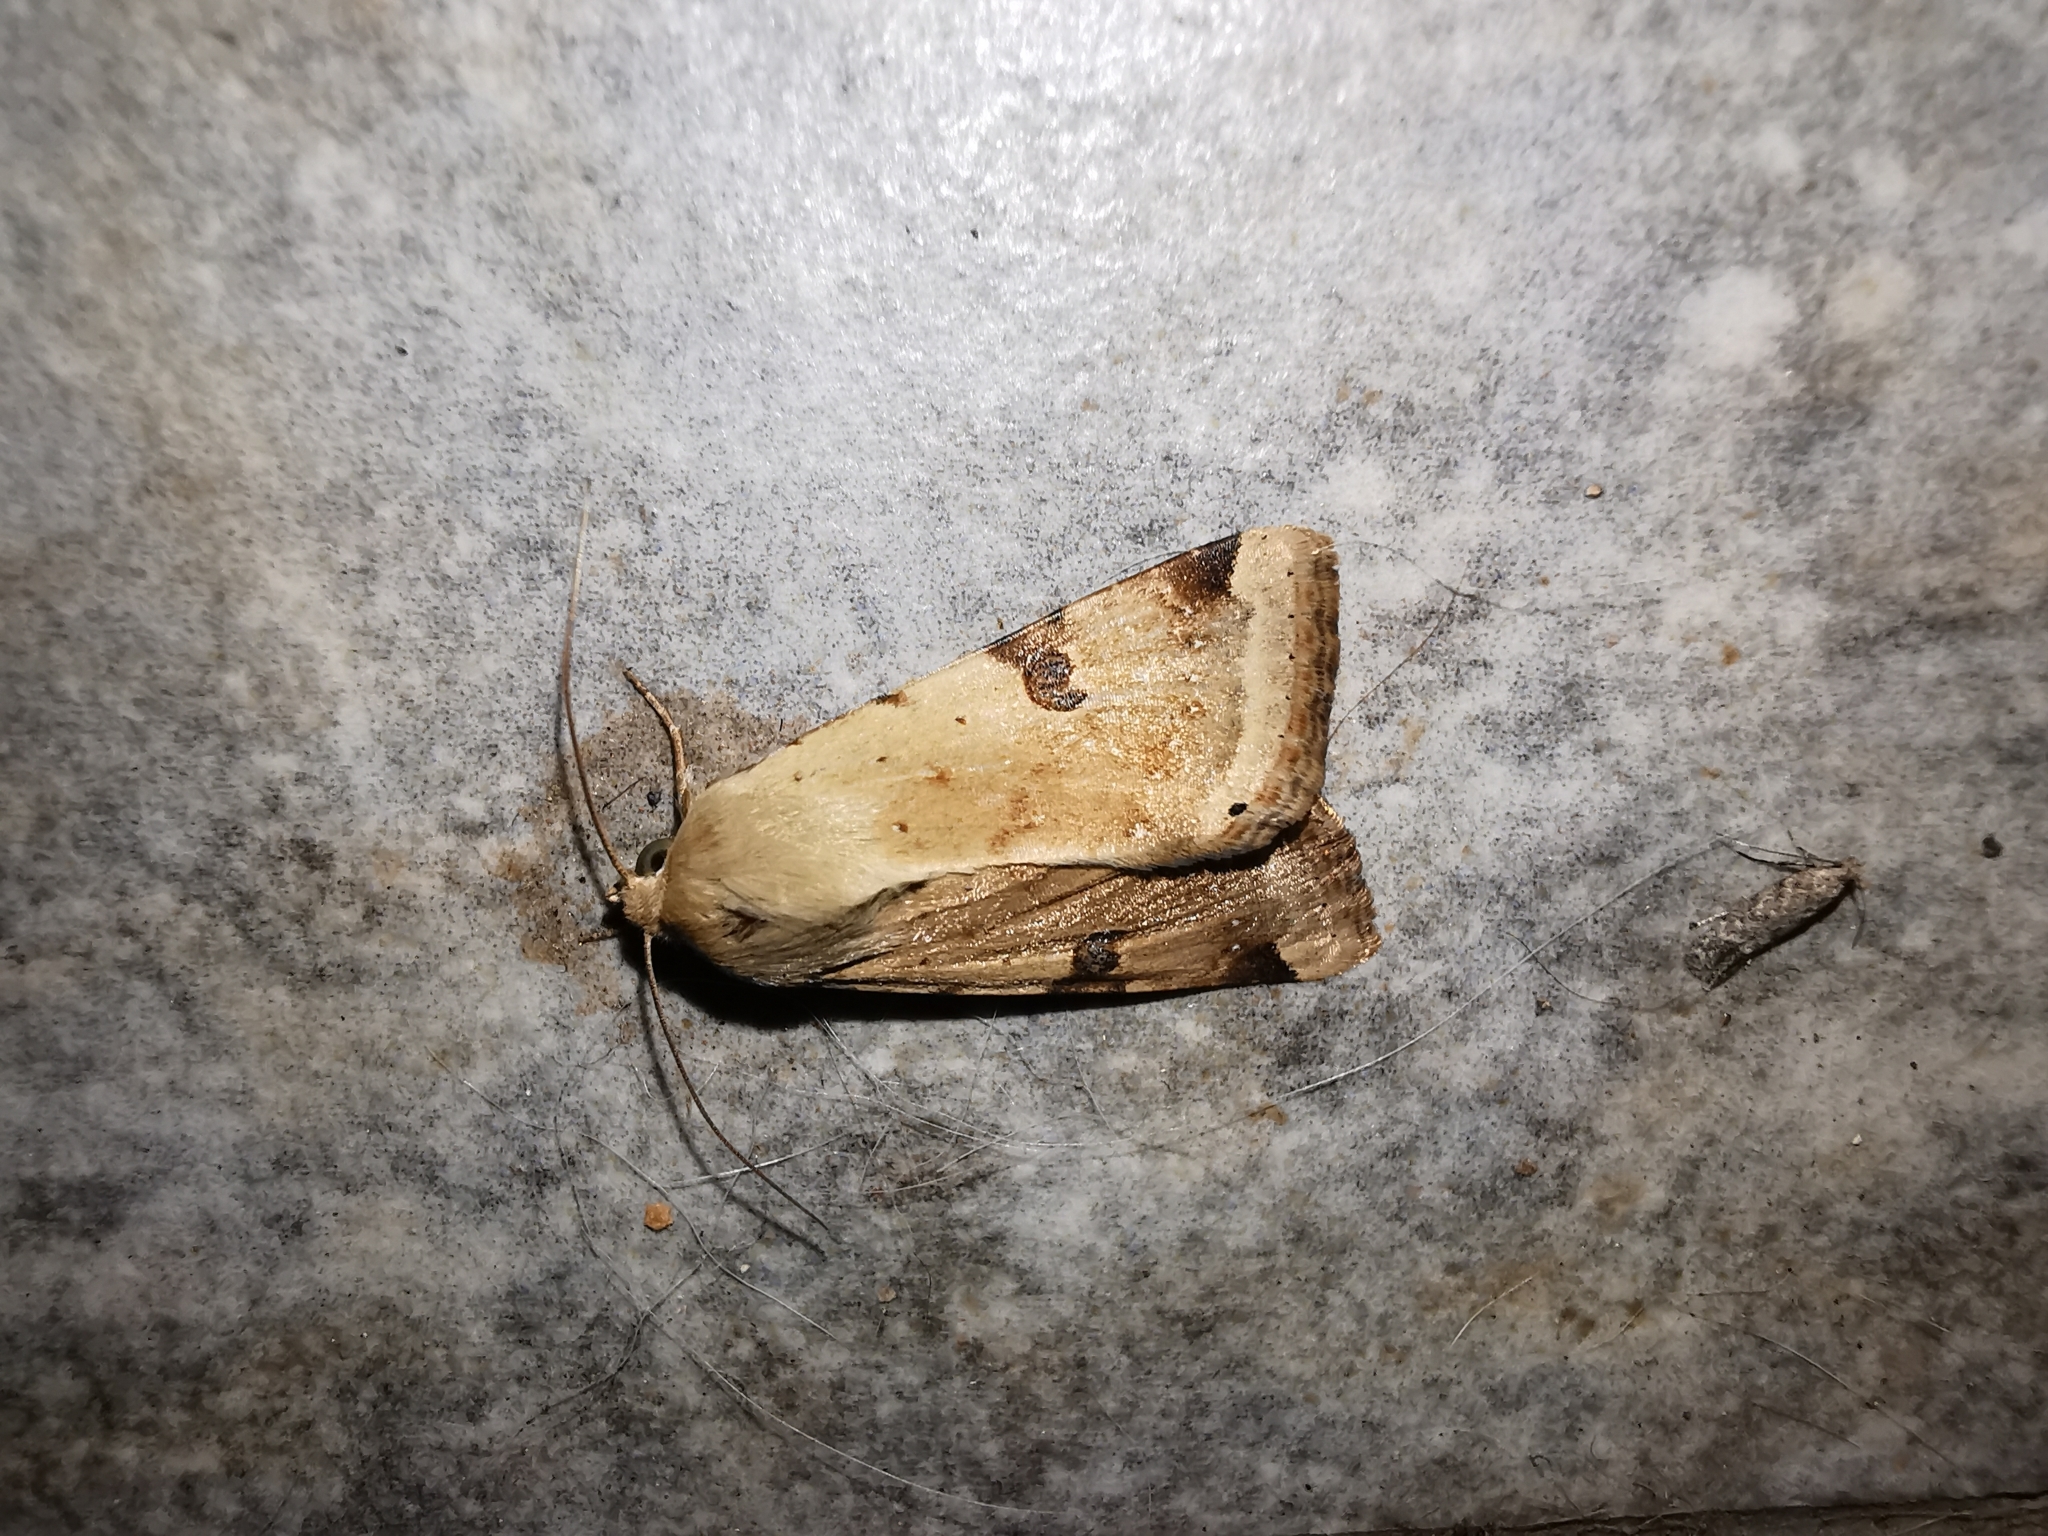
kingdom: Animalia
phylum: Arthropoda
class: Insecta
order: Lepidoptera
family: Noctuidae
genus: Heliothis
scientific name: Heliothis peltigera
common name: Bordered straw
